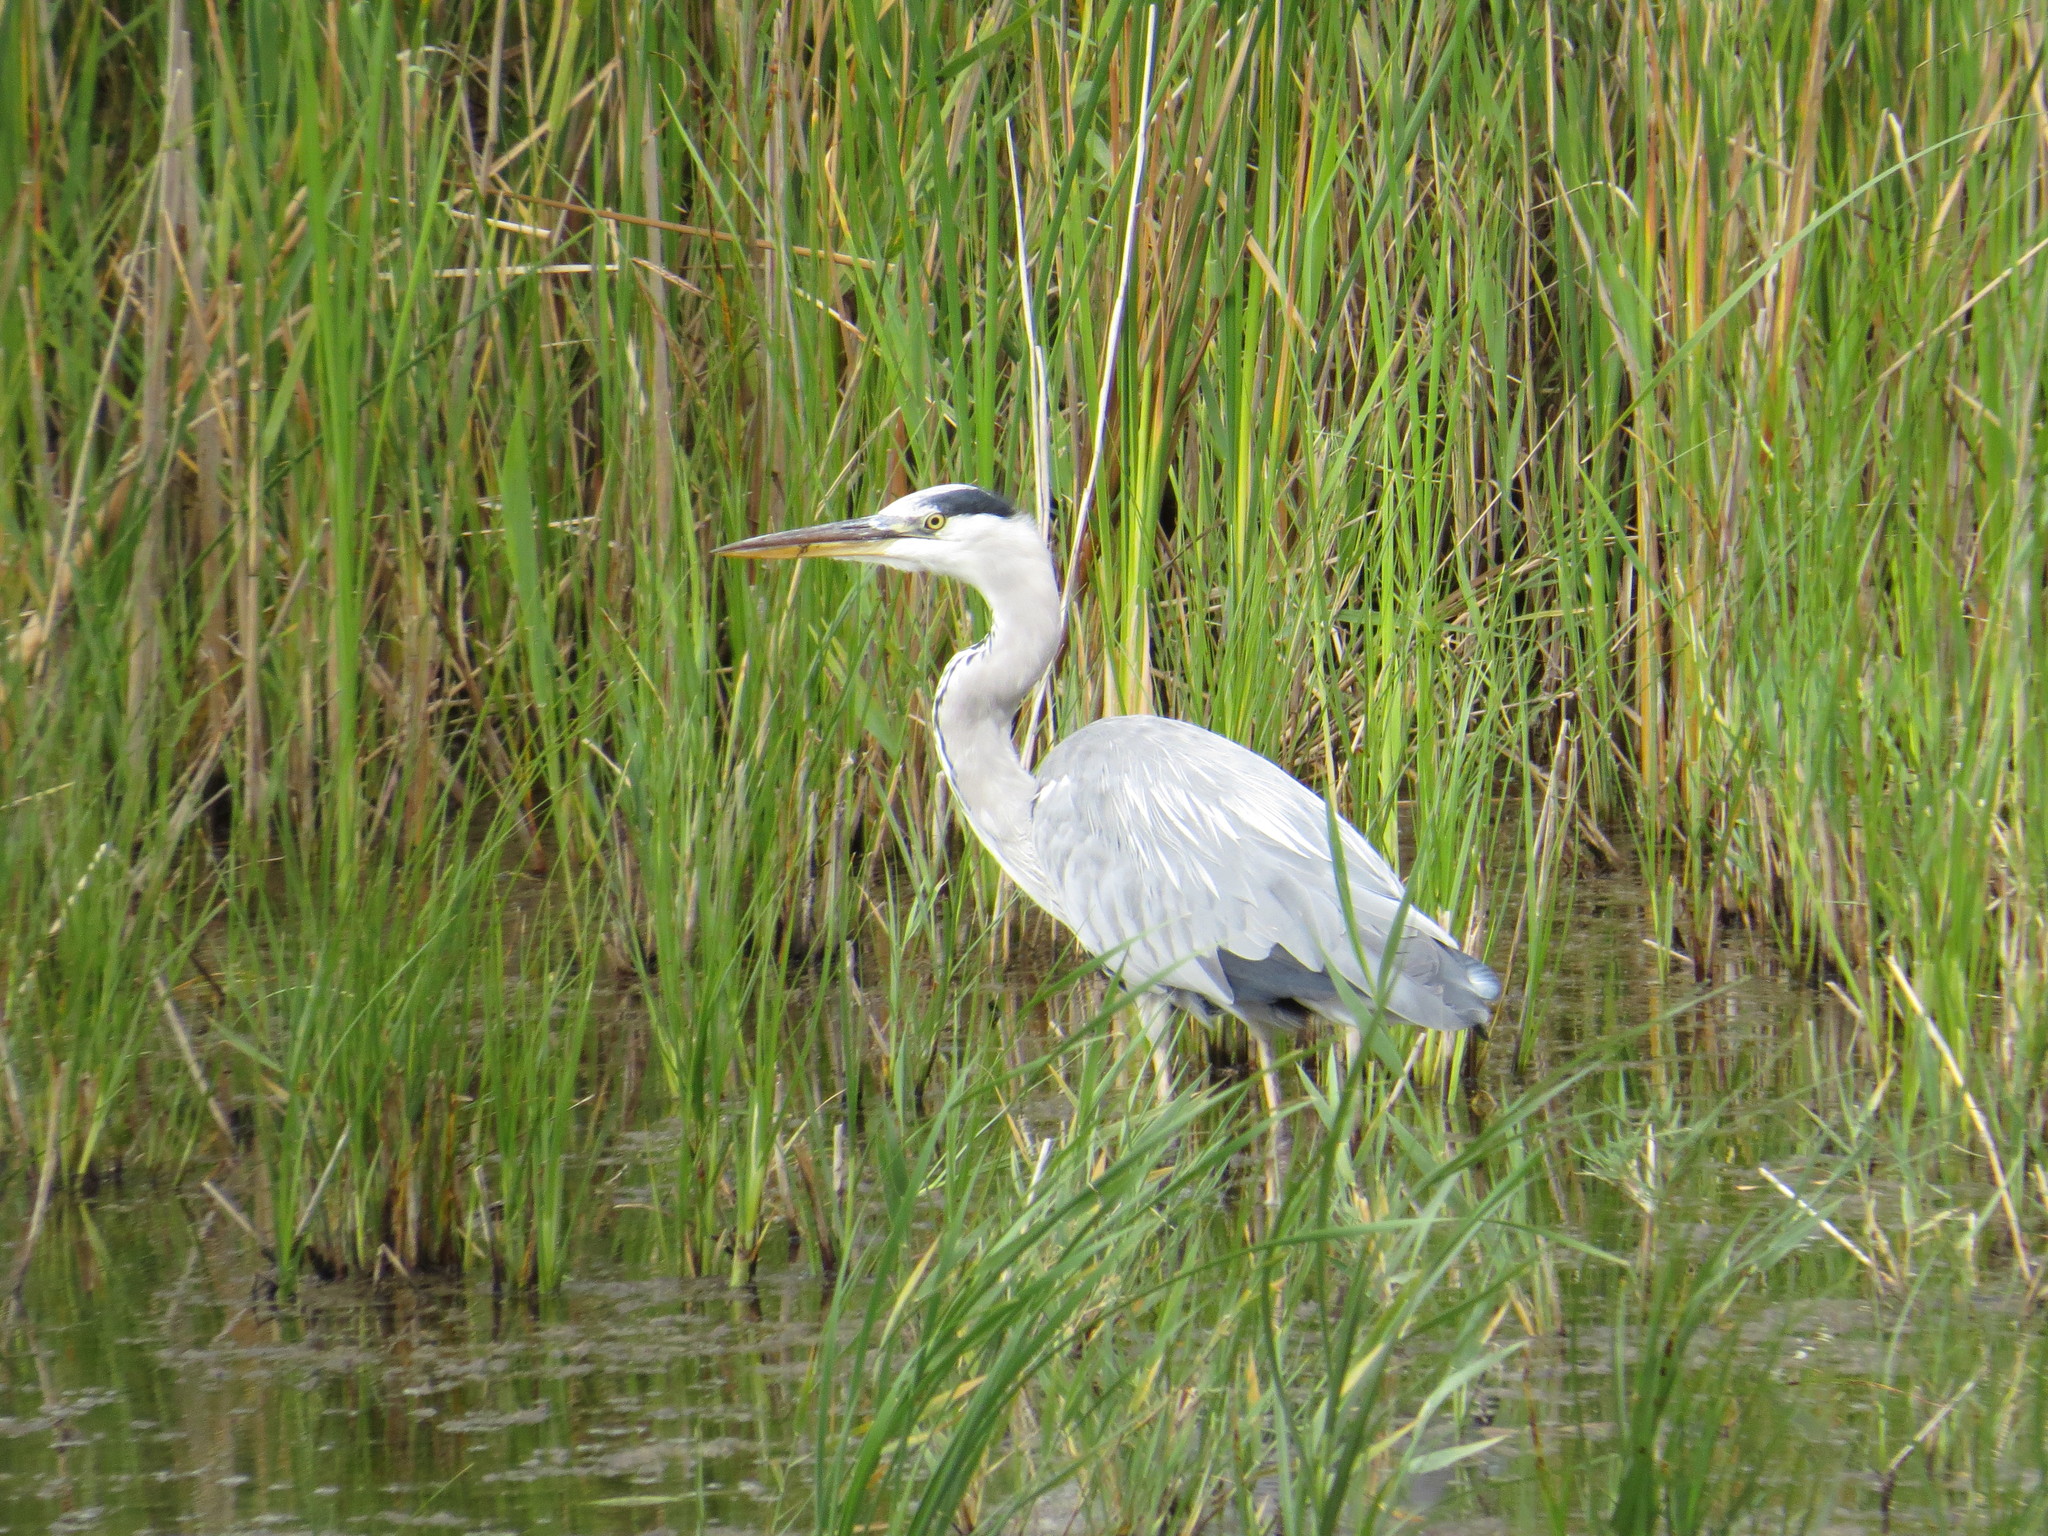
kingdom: Animalia
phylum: Chordata
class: Aves
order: Pelecaniformes
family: Ardeidae
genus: Ardea
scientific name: Ardea cinerea
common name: Grey heron
